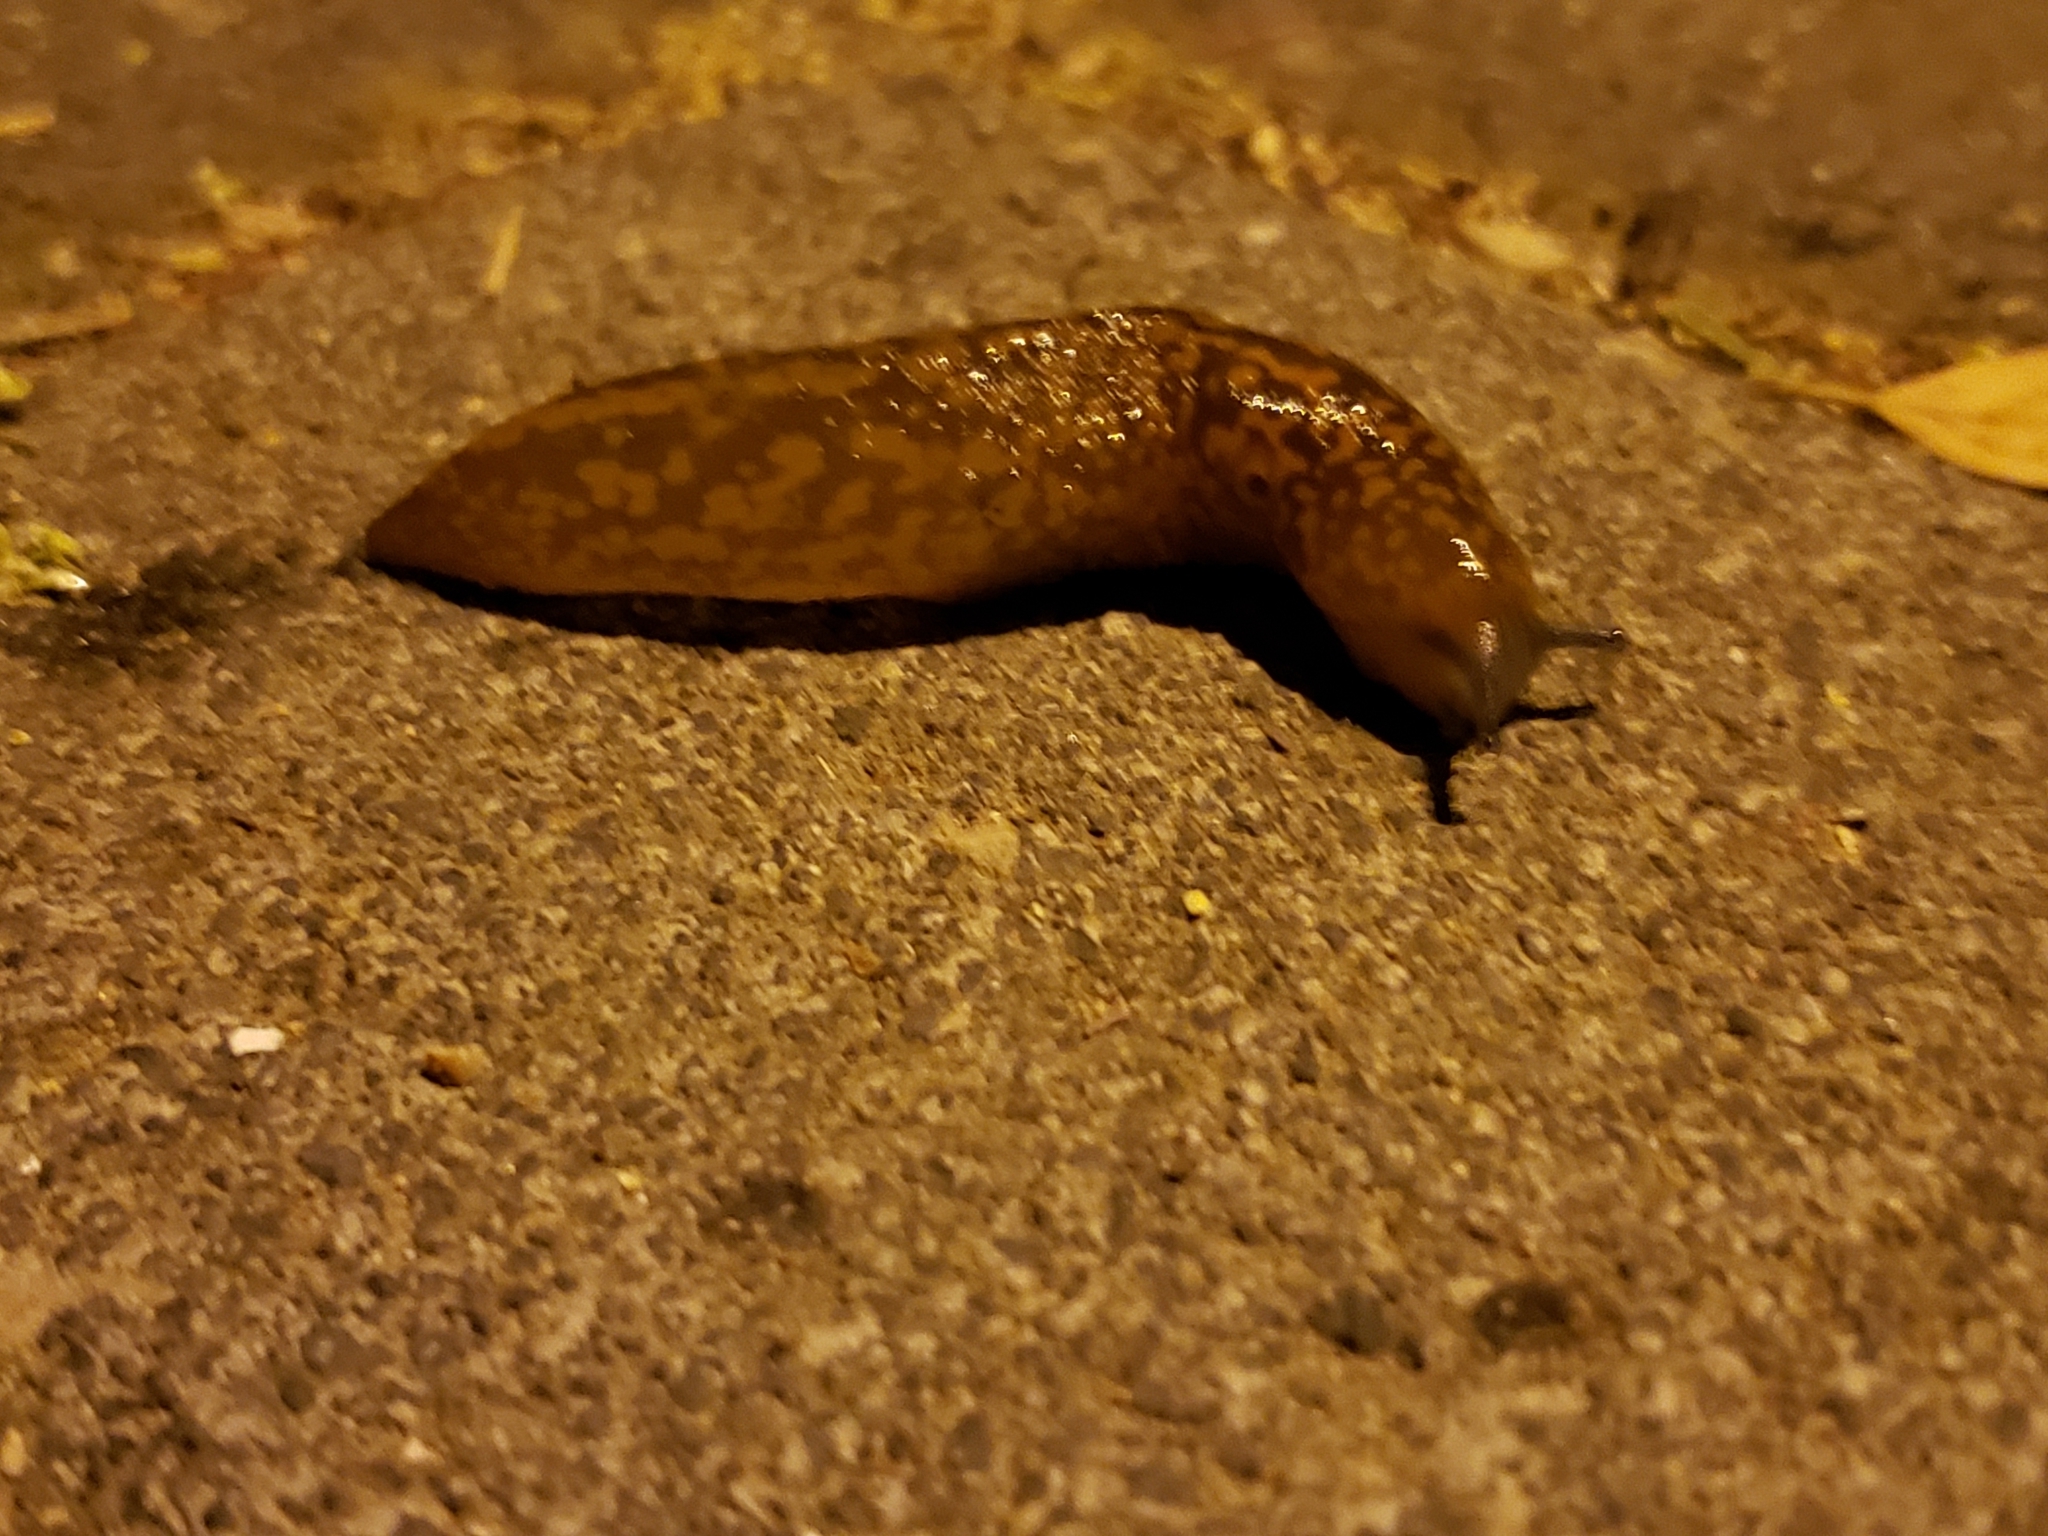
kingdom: Animalia
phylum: Mollusca
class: Gastropoda
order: Stylommatophora
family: Limacidae
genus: Limacus
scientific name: Limacus flavus
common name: Yellow gardenslug
